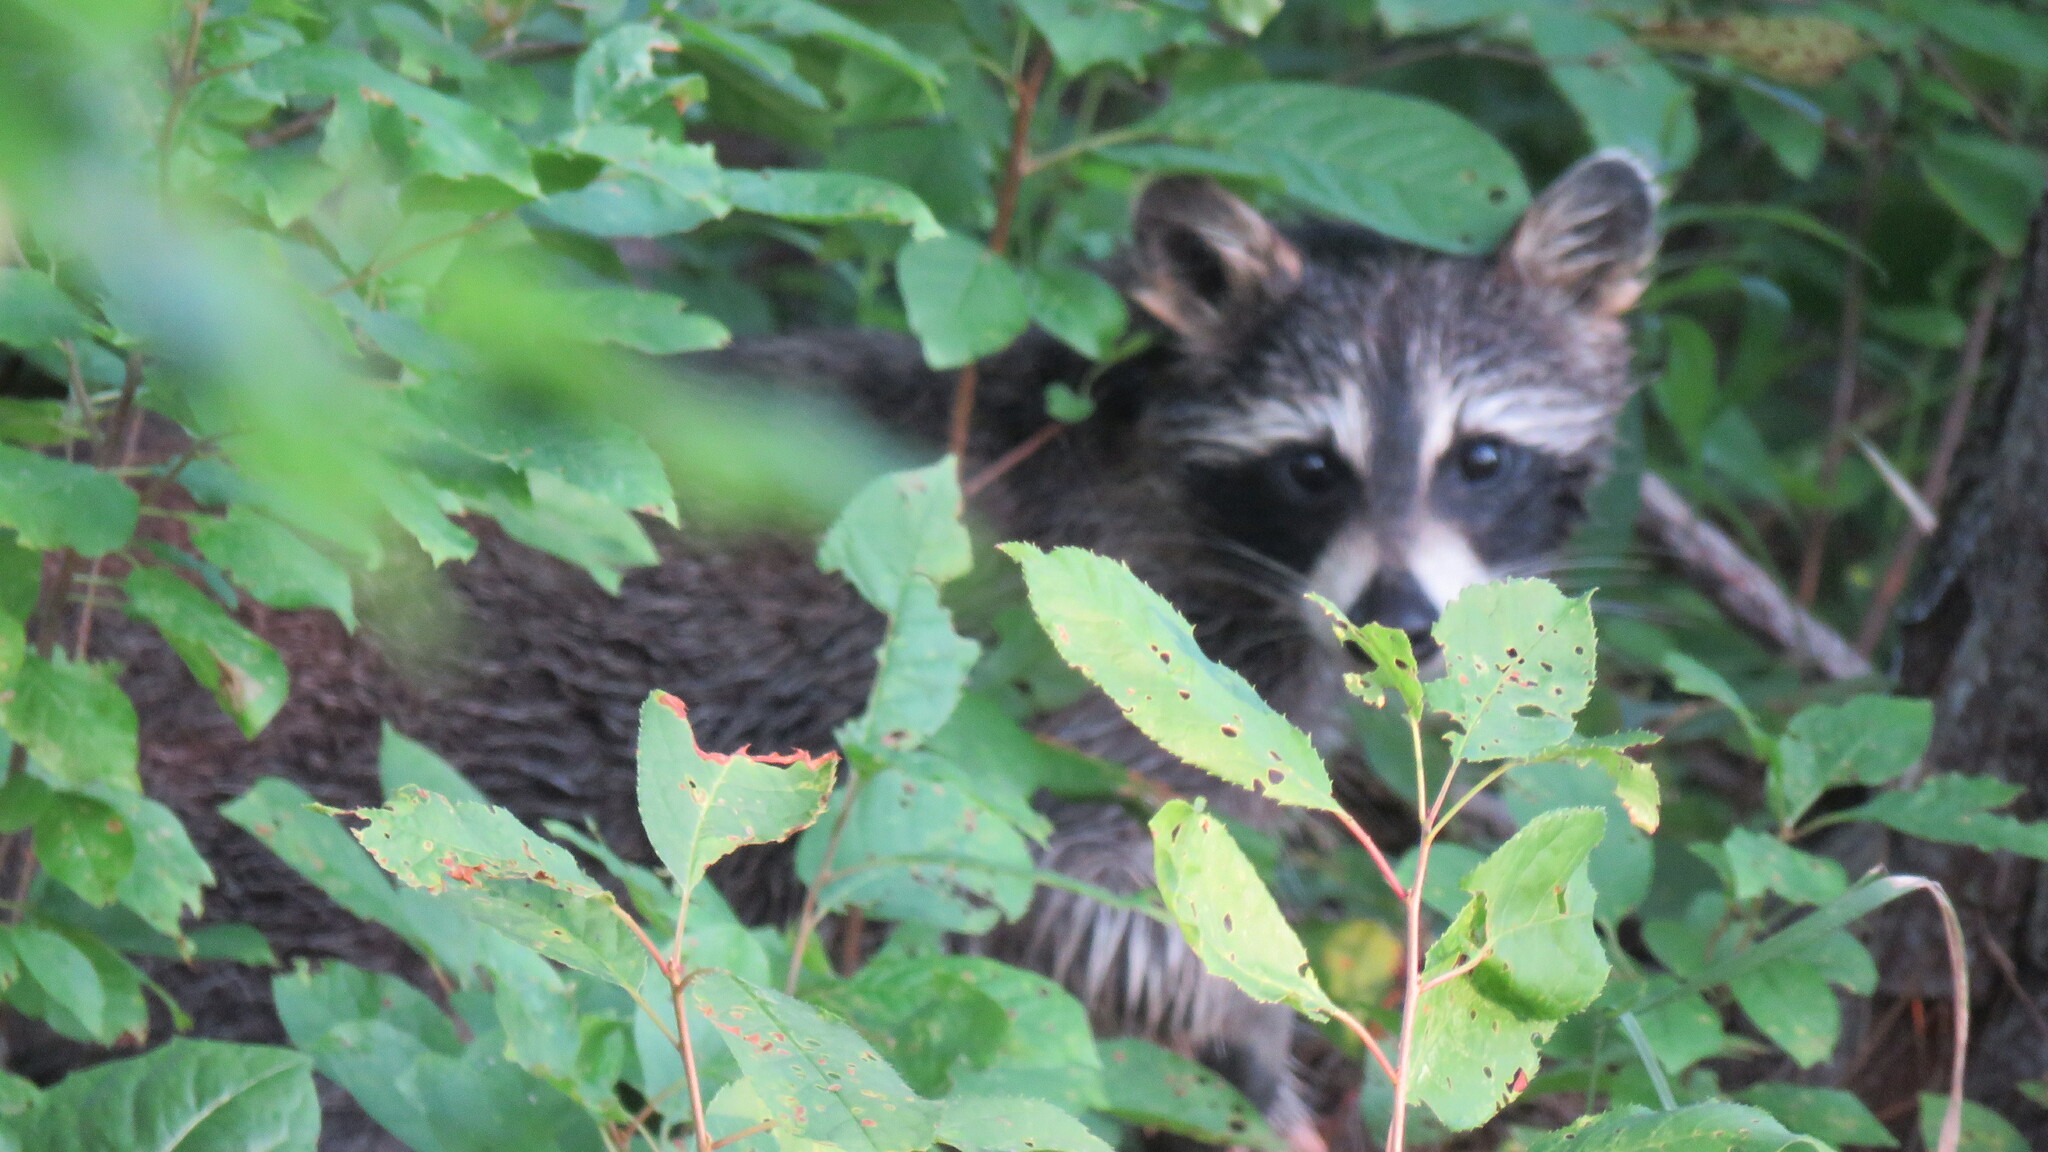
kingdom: Animalia
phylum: Chordata
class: Mammalia
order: Carnivora
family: Procyonidae
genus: Procyon
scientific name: Procyon lotor
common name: Raccoon
